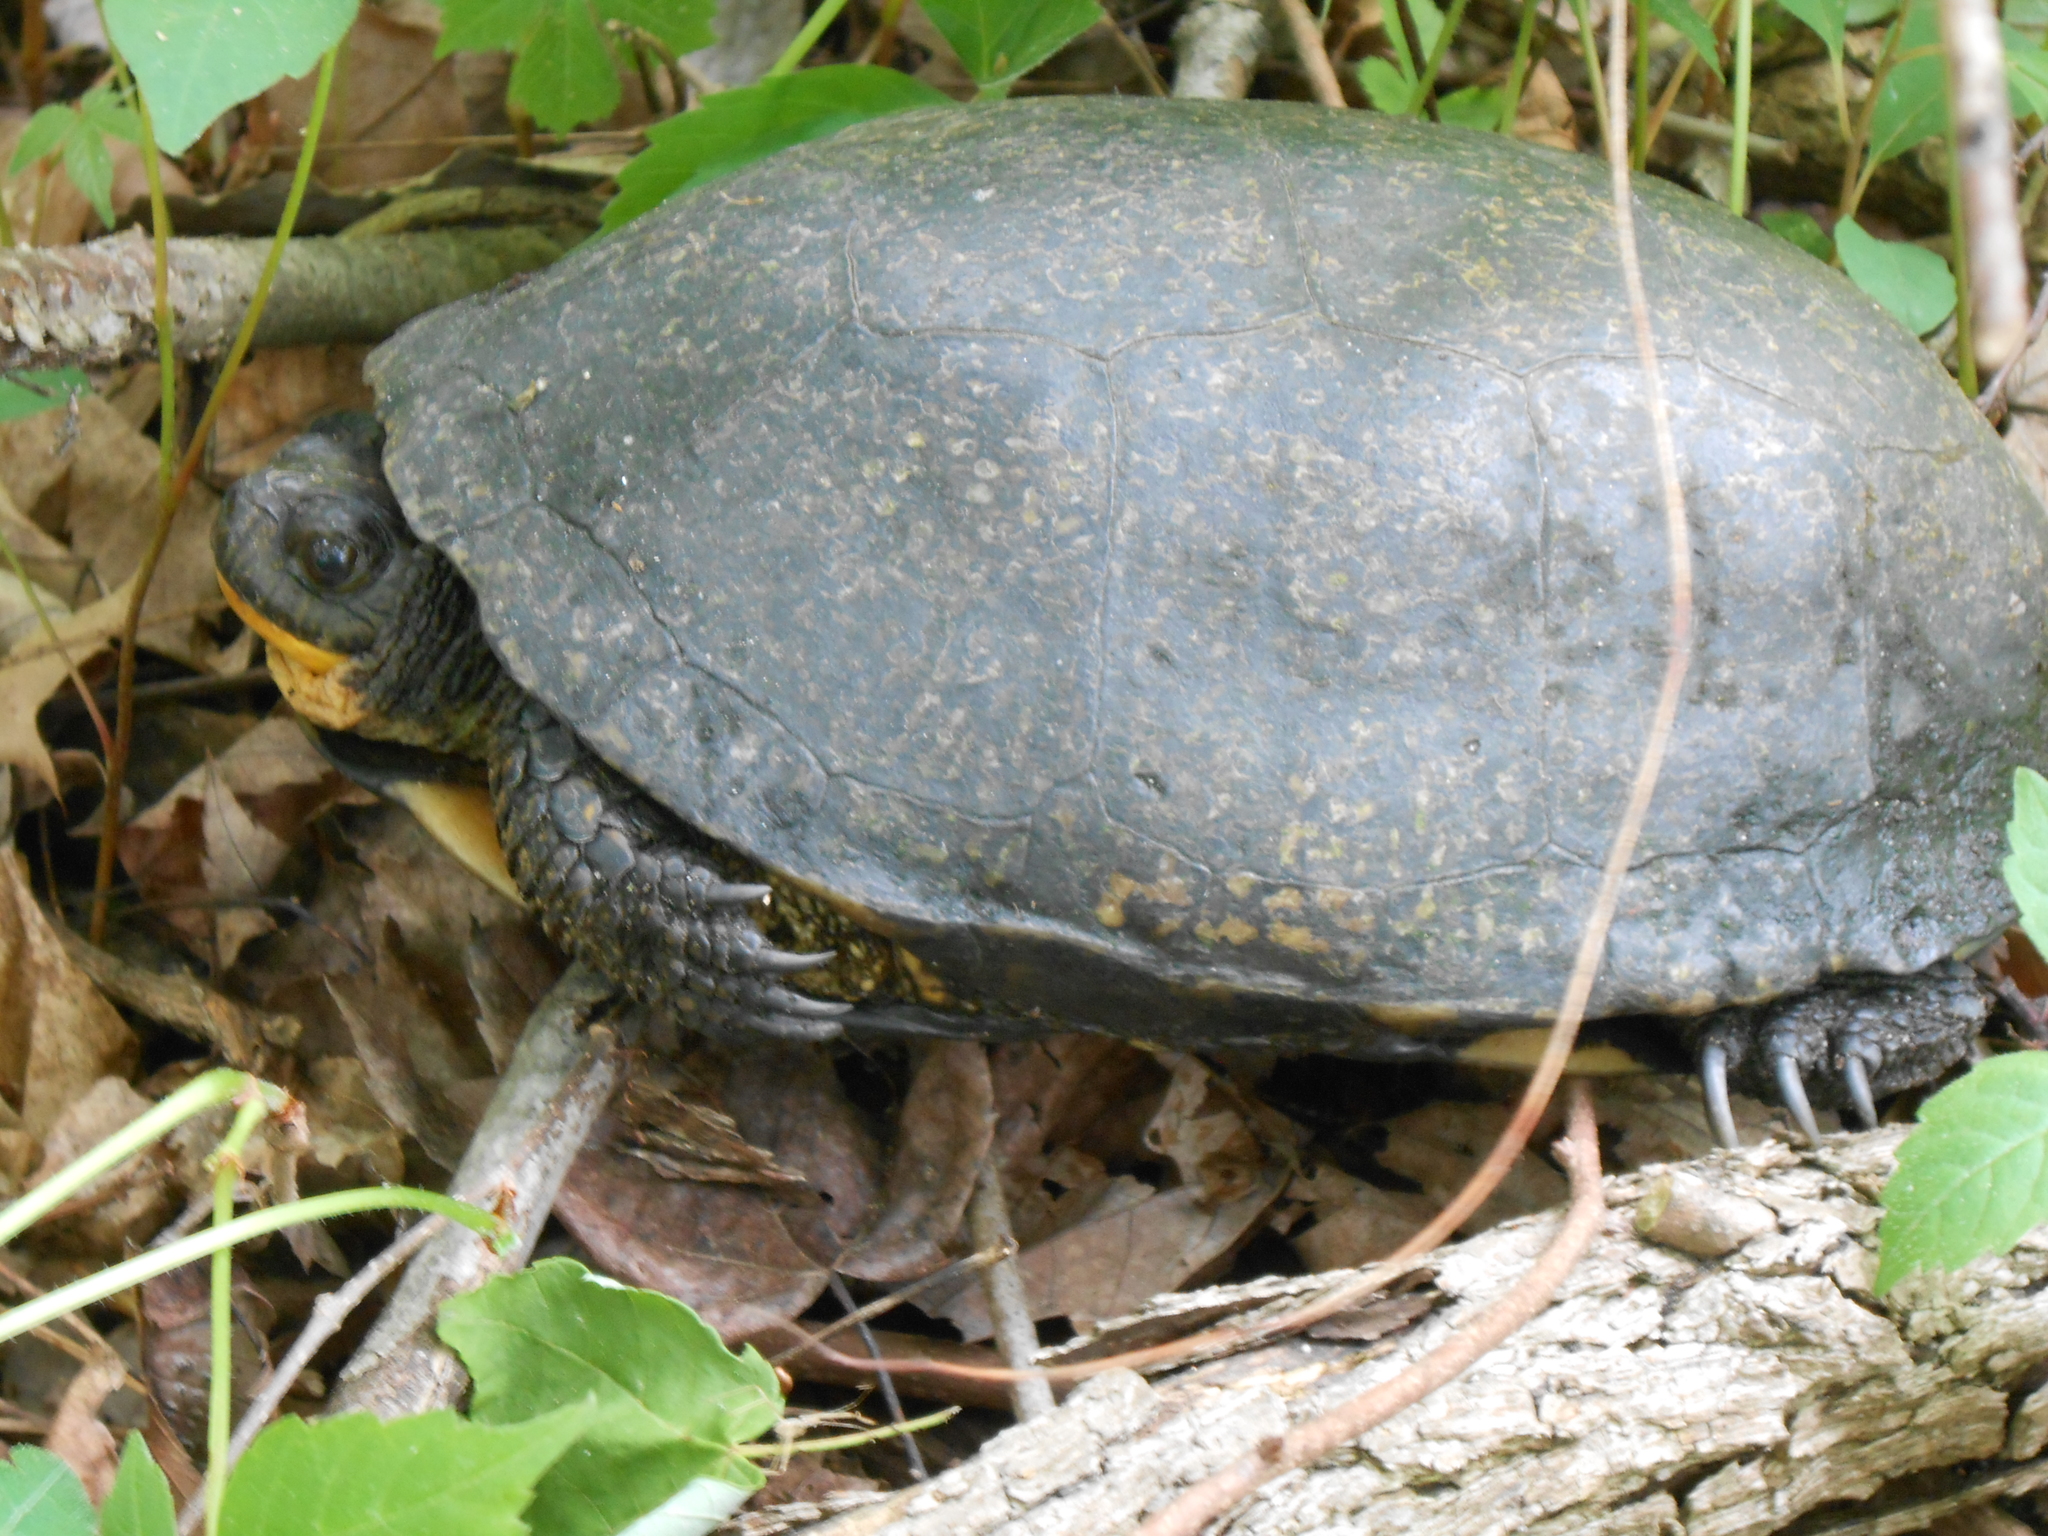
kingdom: Animalia
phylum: Chordata
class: Testudines
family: Emydidae
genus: Emys
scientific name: Emys blandingii
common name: Blanding's turtle
